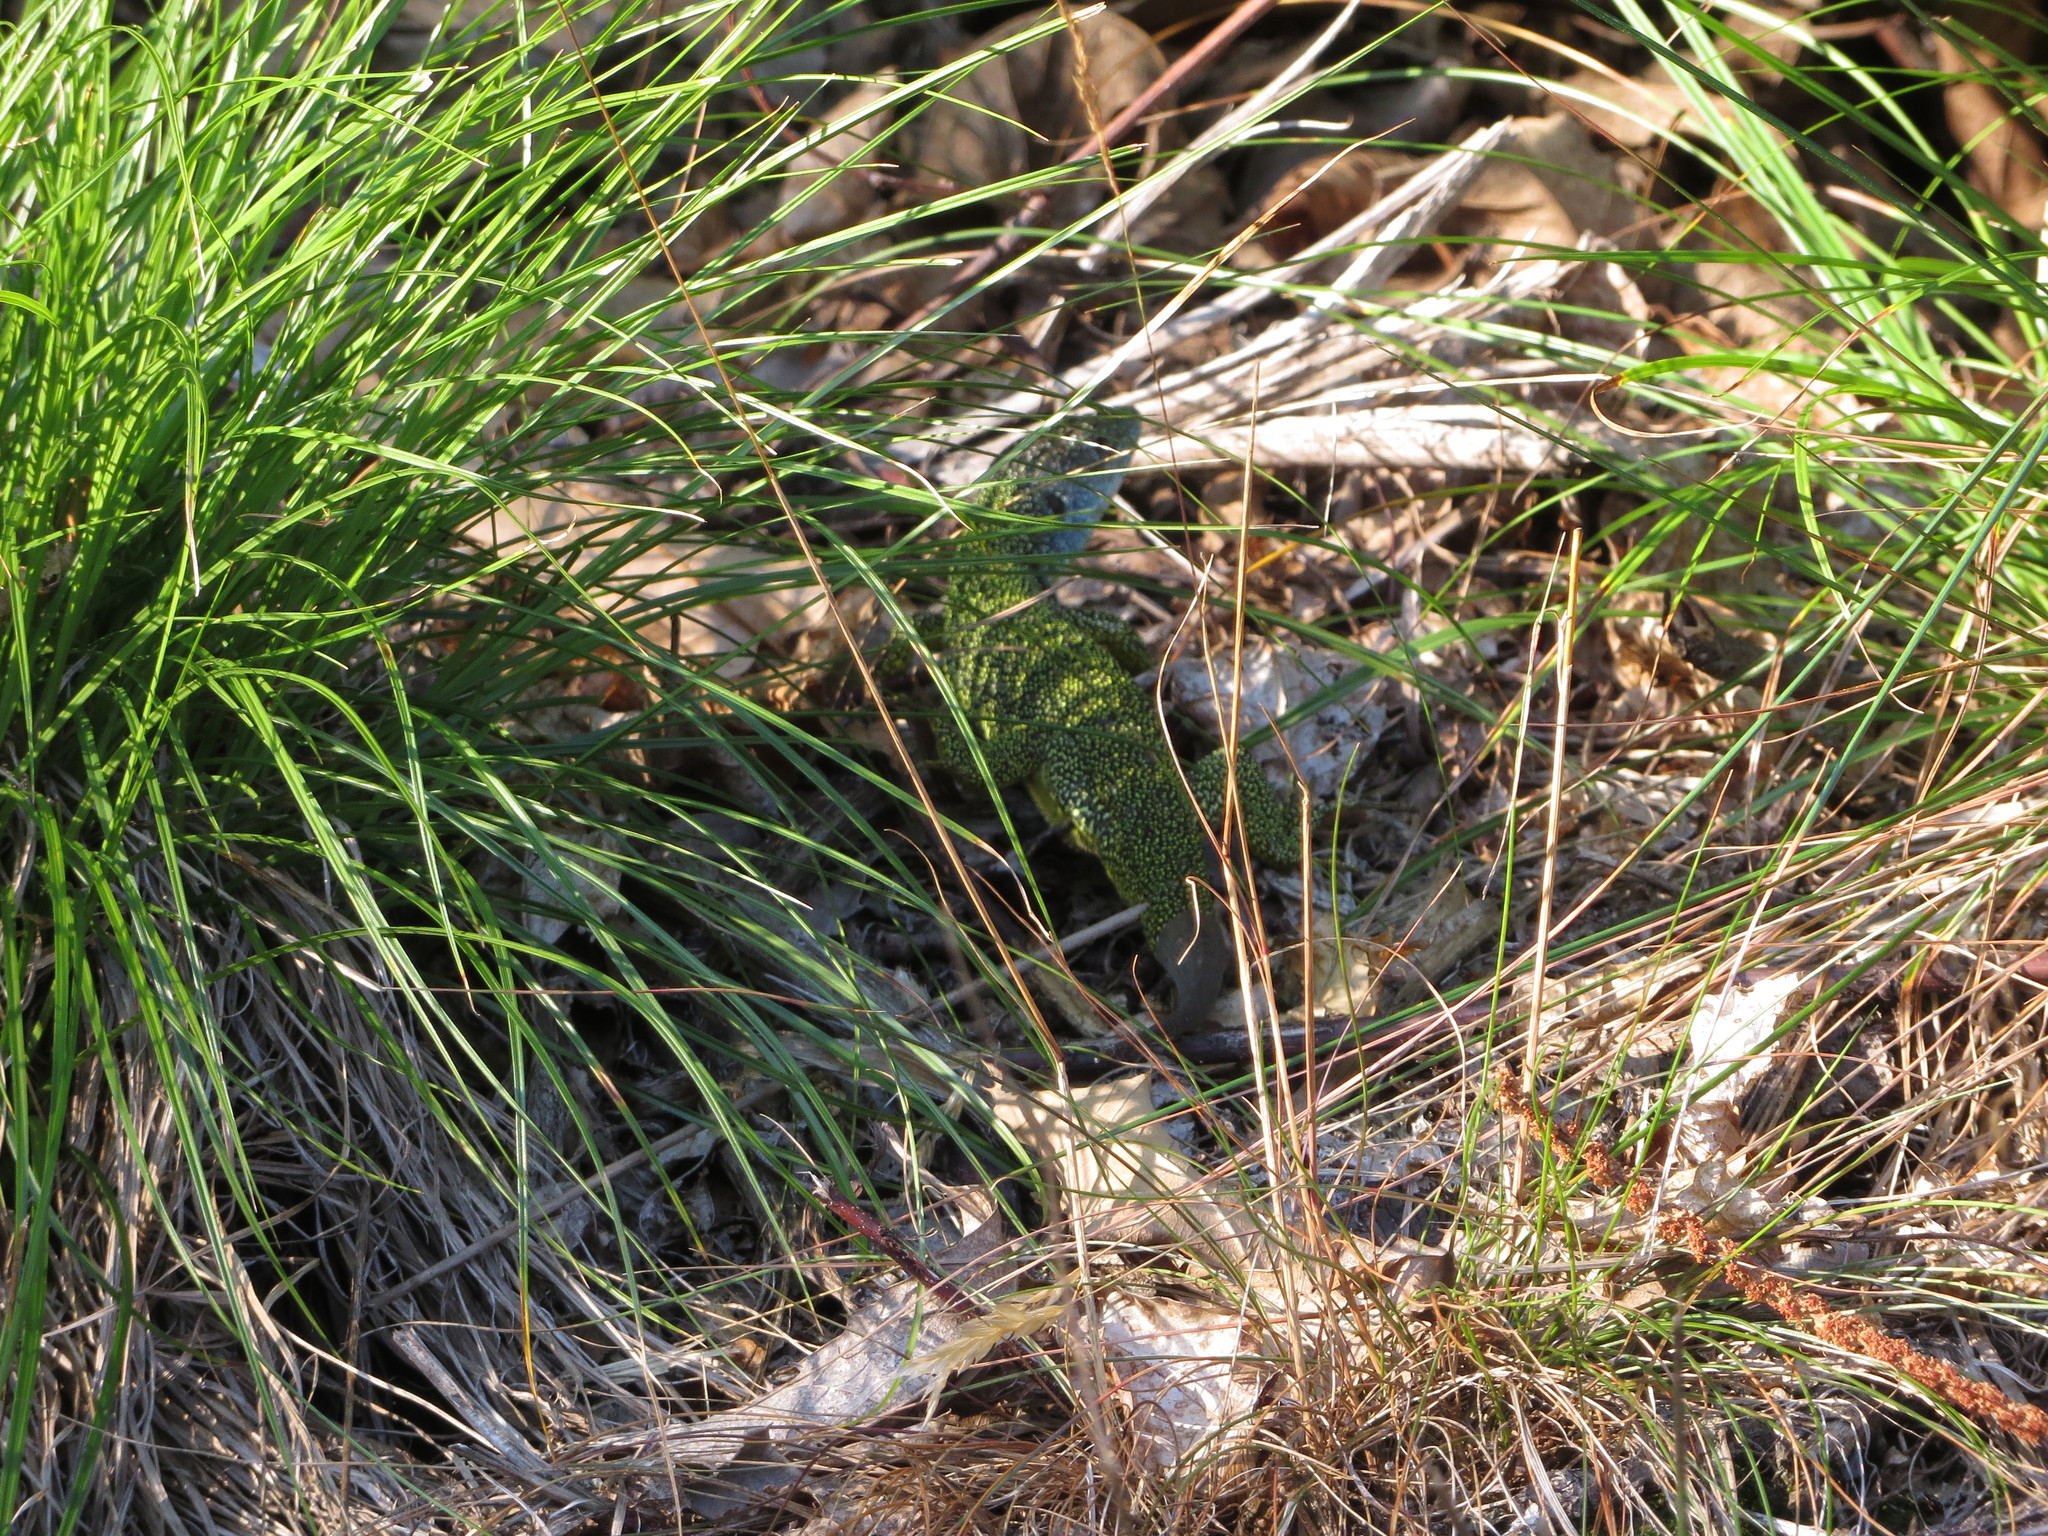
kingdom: Animalia
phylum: Chordata
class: Squamata
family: Lacertidae
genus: Lacerta
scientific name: Lacerta bilineata
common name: Western green lizard
